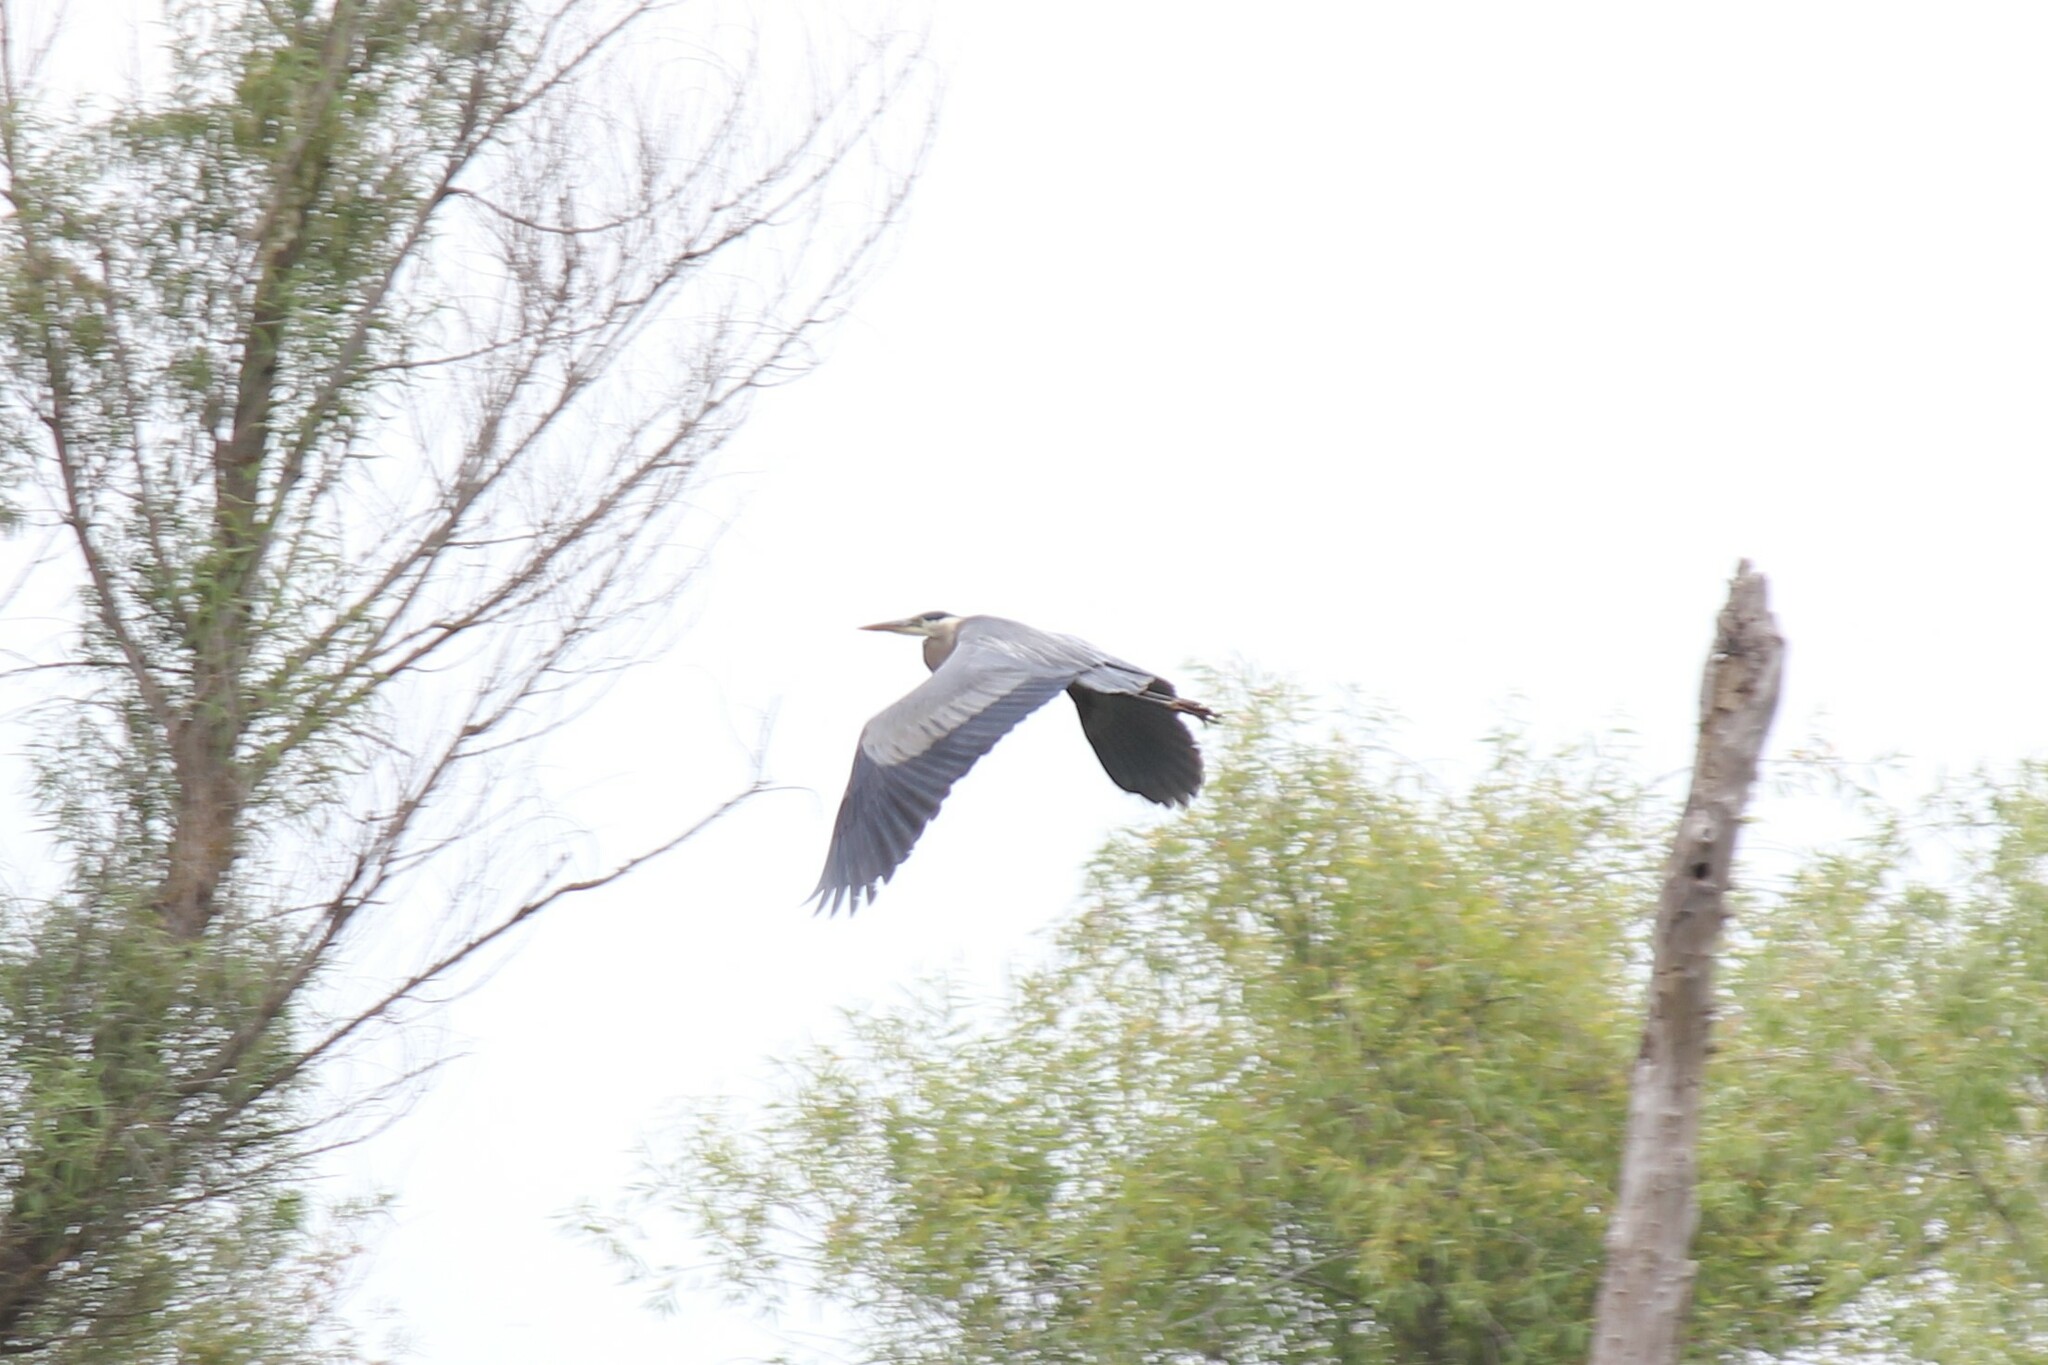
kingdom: Animalia
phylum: Chordata
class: Aves
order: Pelecaniformes
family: Ardeidae
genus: Ardea
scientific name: Ardea herodias
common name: Great blue heron
